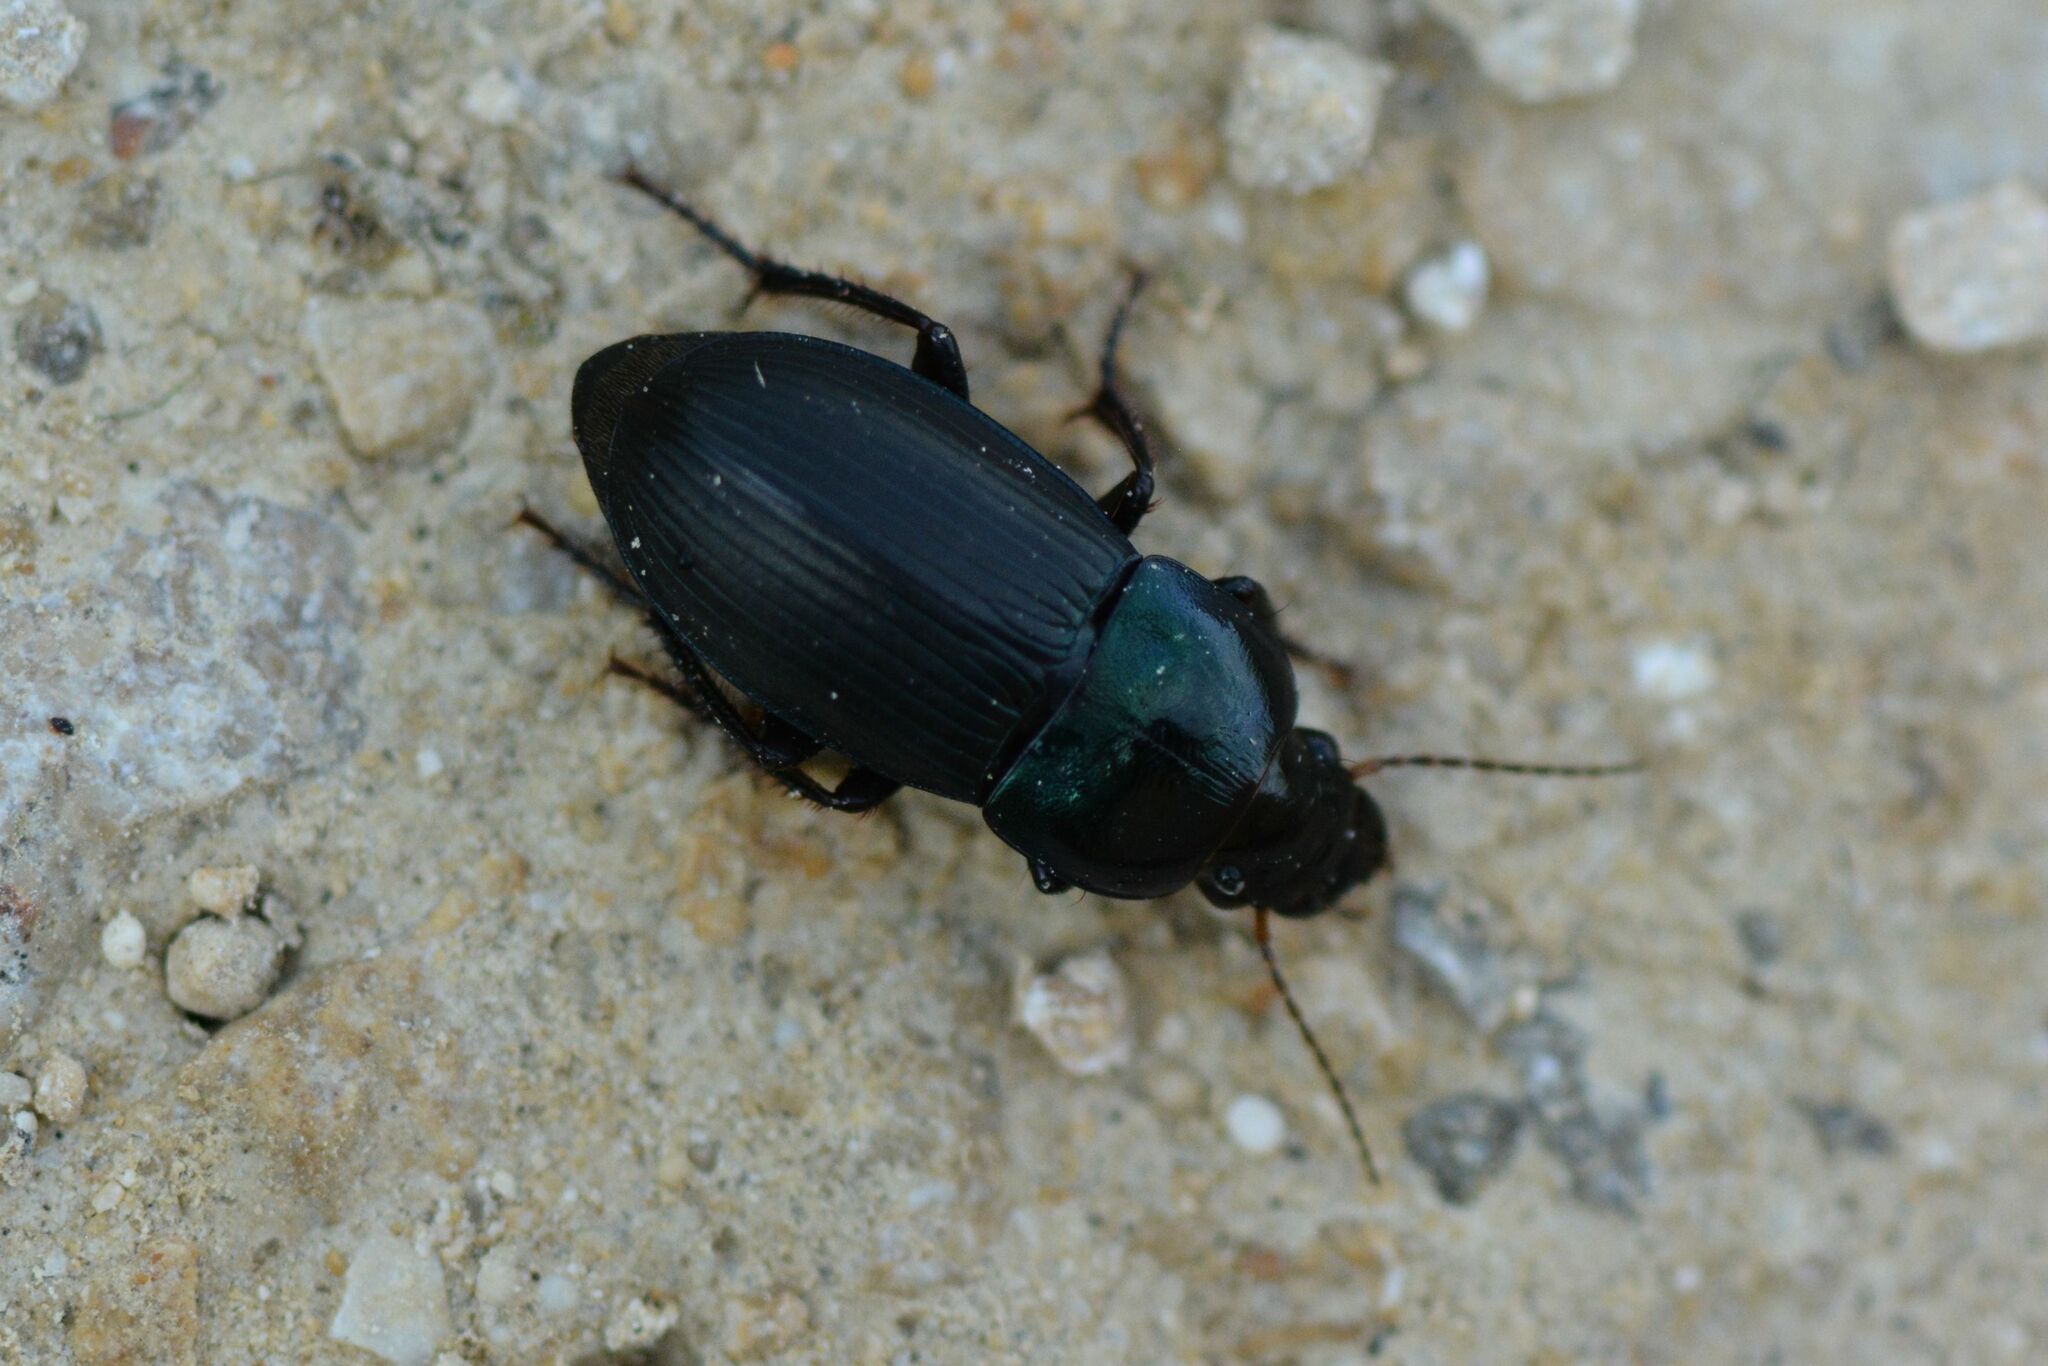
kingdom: Animalia
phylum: Arthropoda
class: Insecta
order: Coleoptera
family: Carabidae
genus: Harpalus
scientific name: Harpalus dimidiatus
